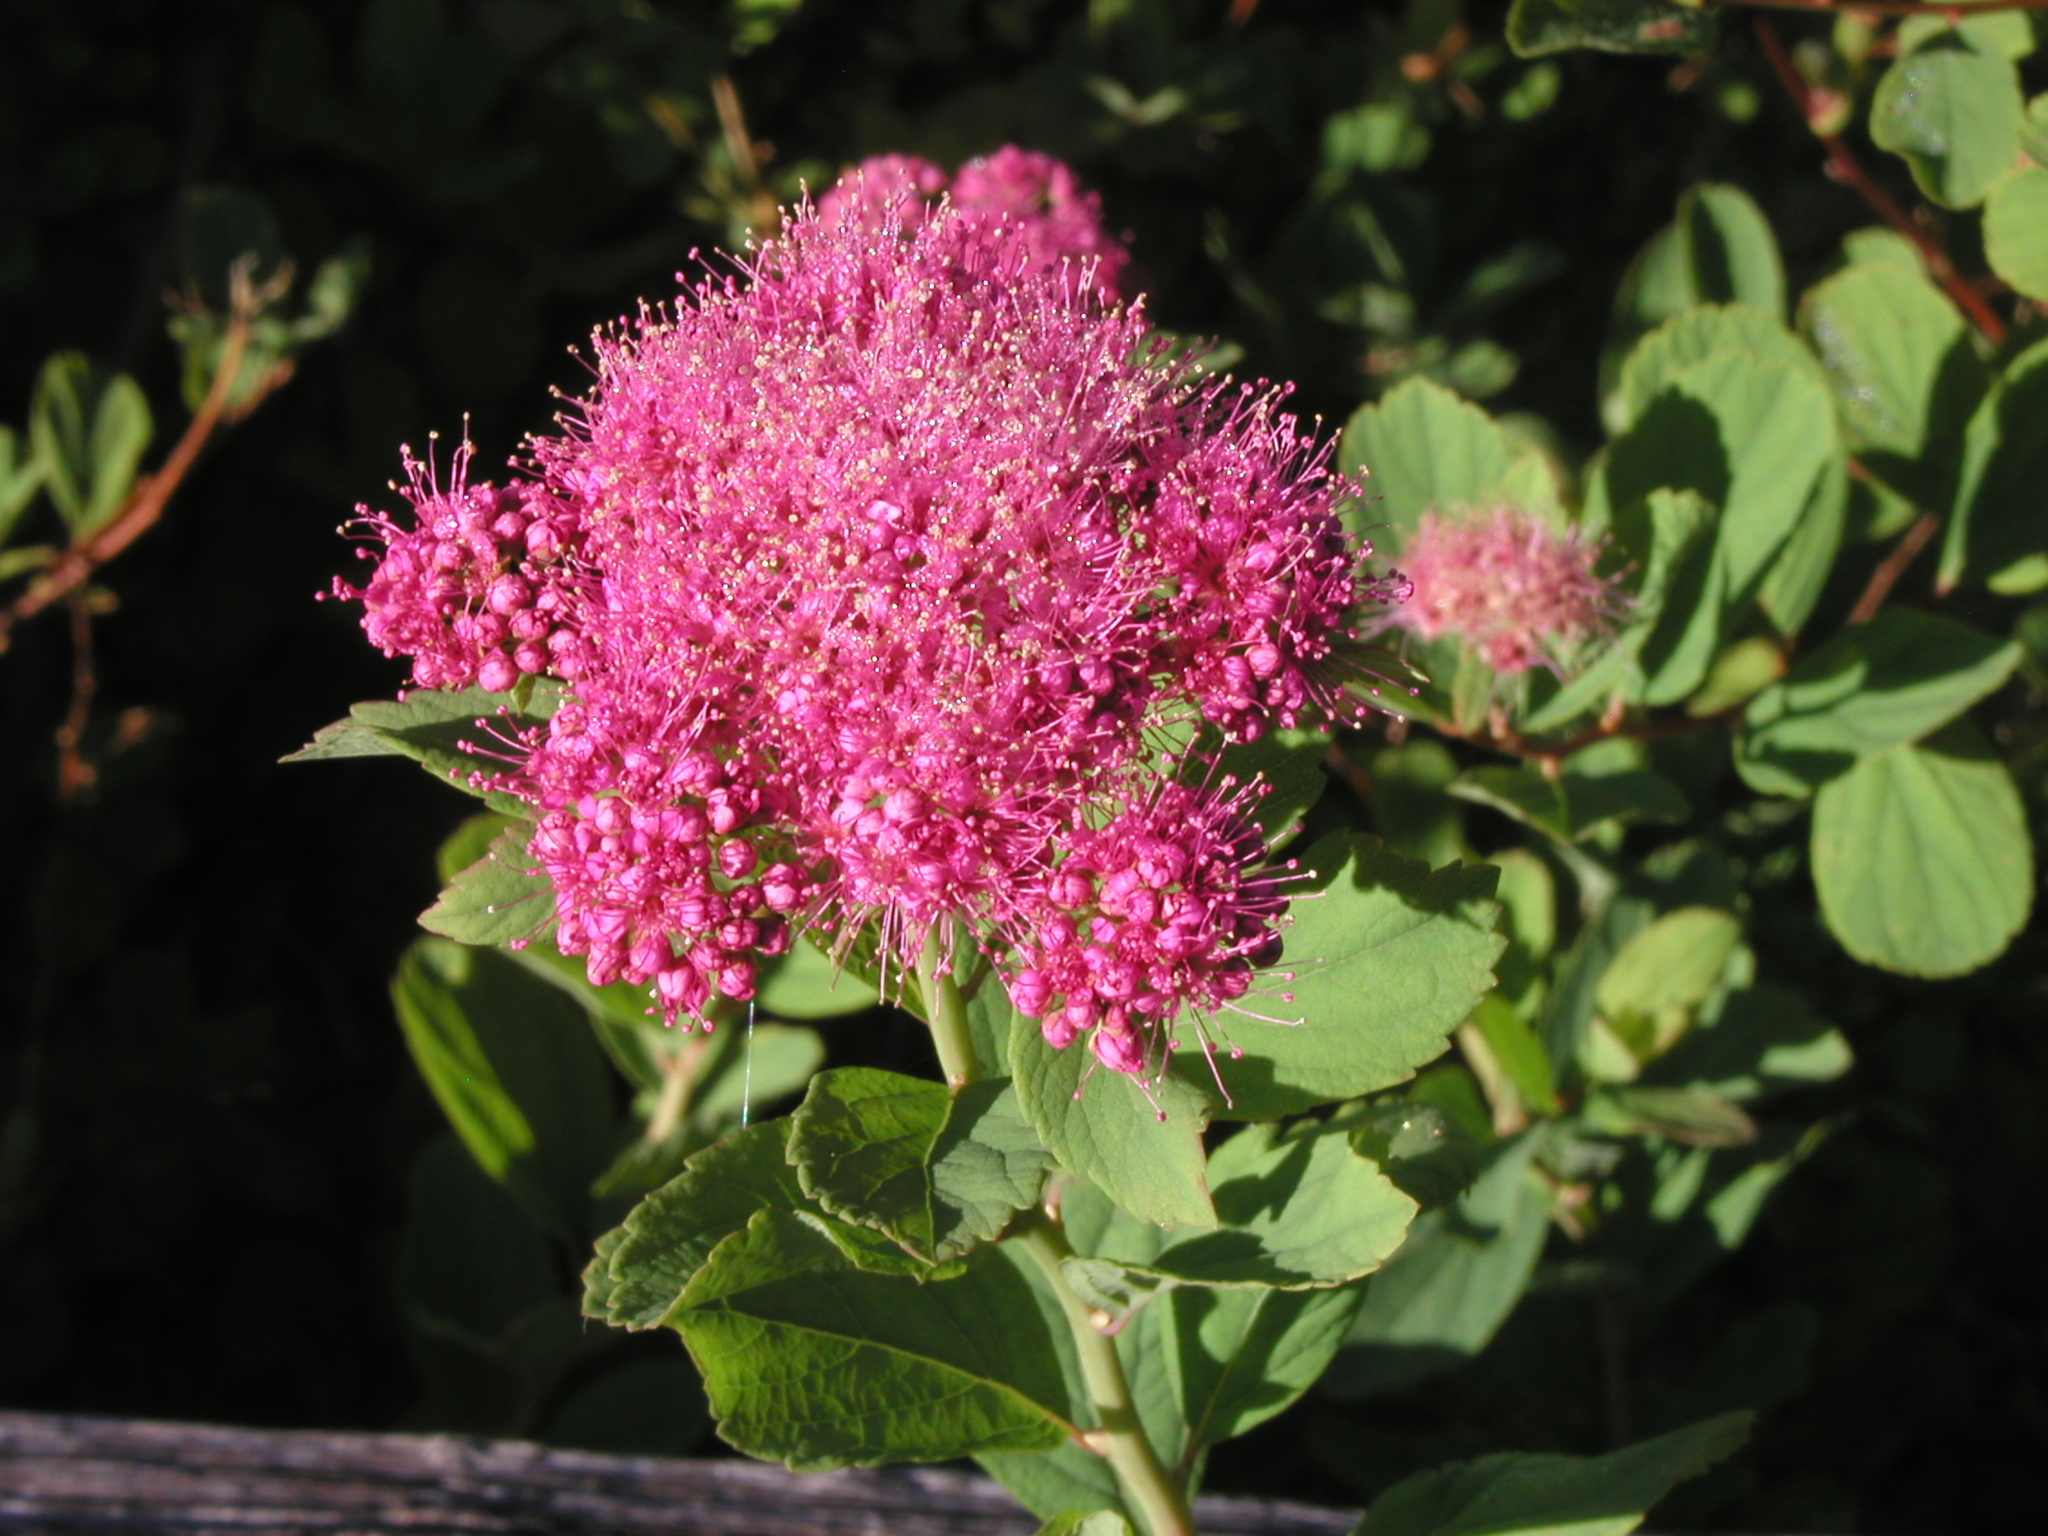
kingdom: Plantae
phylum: Tracheophyta
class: Magnoliopsida
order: Rosales
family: Rosaceae
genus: Spiraea
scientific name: Spiraea splendens
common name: Subalpine meadowsweet
